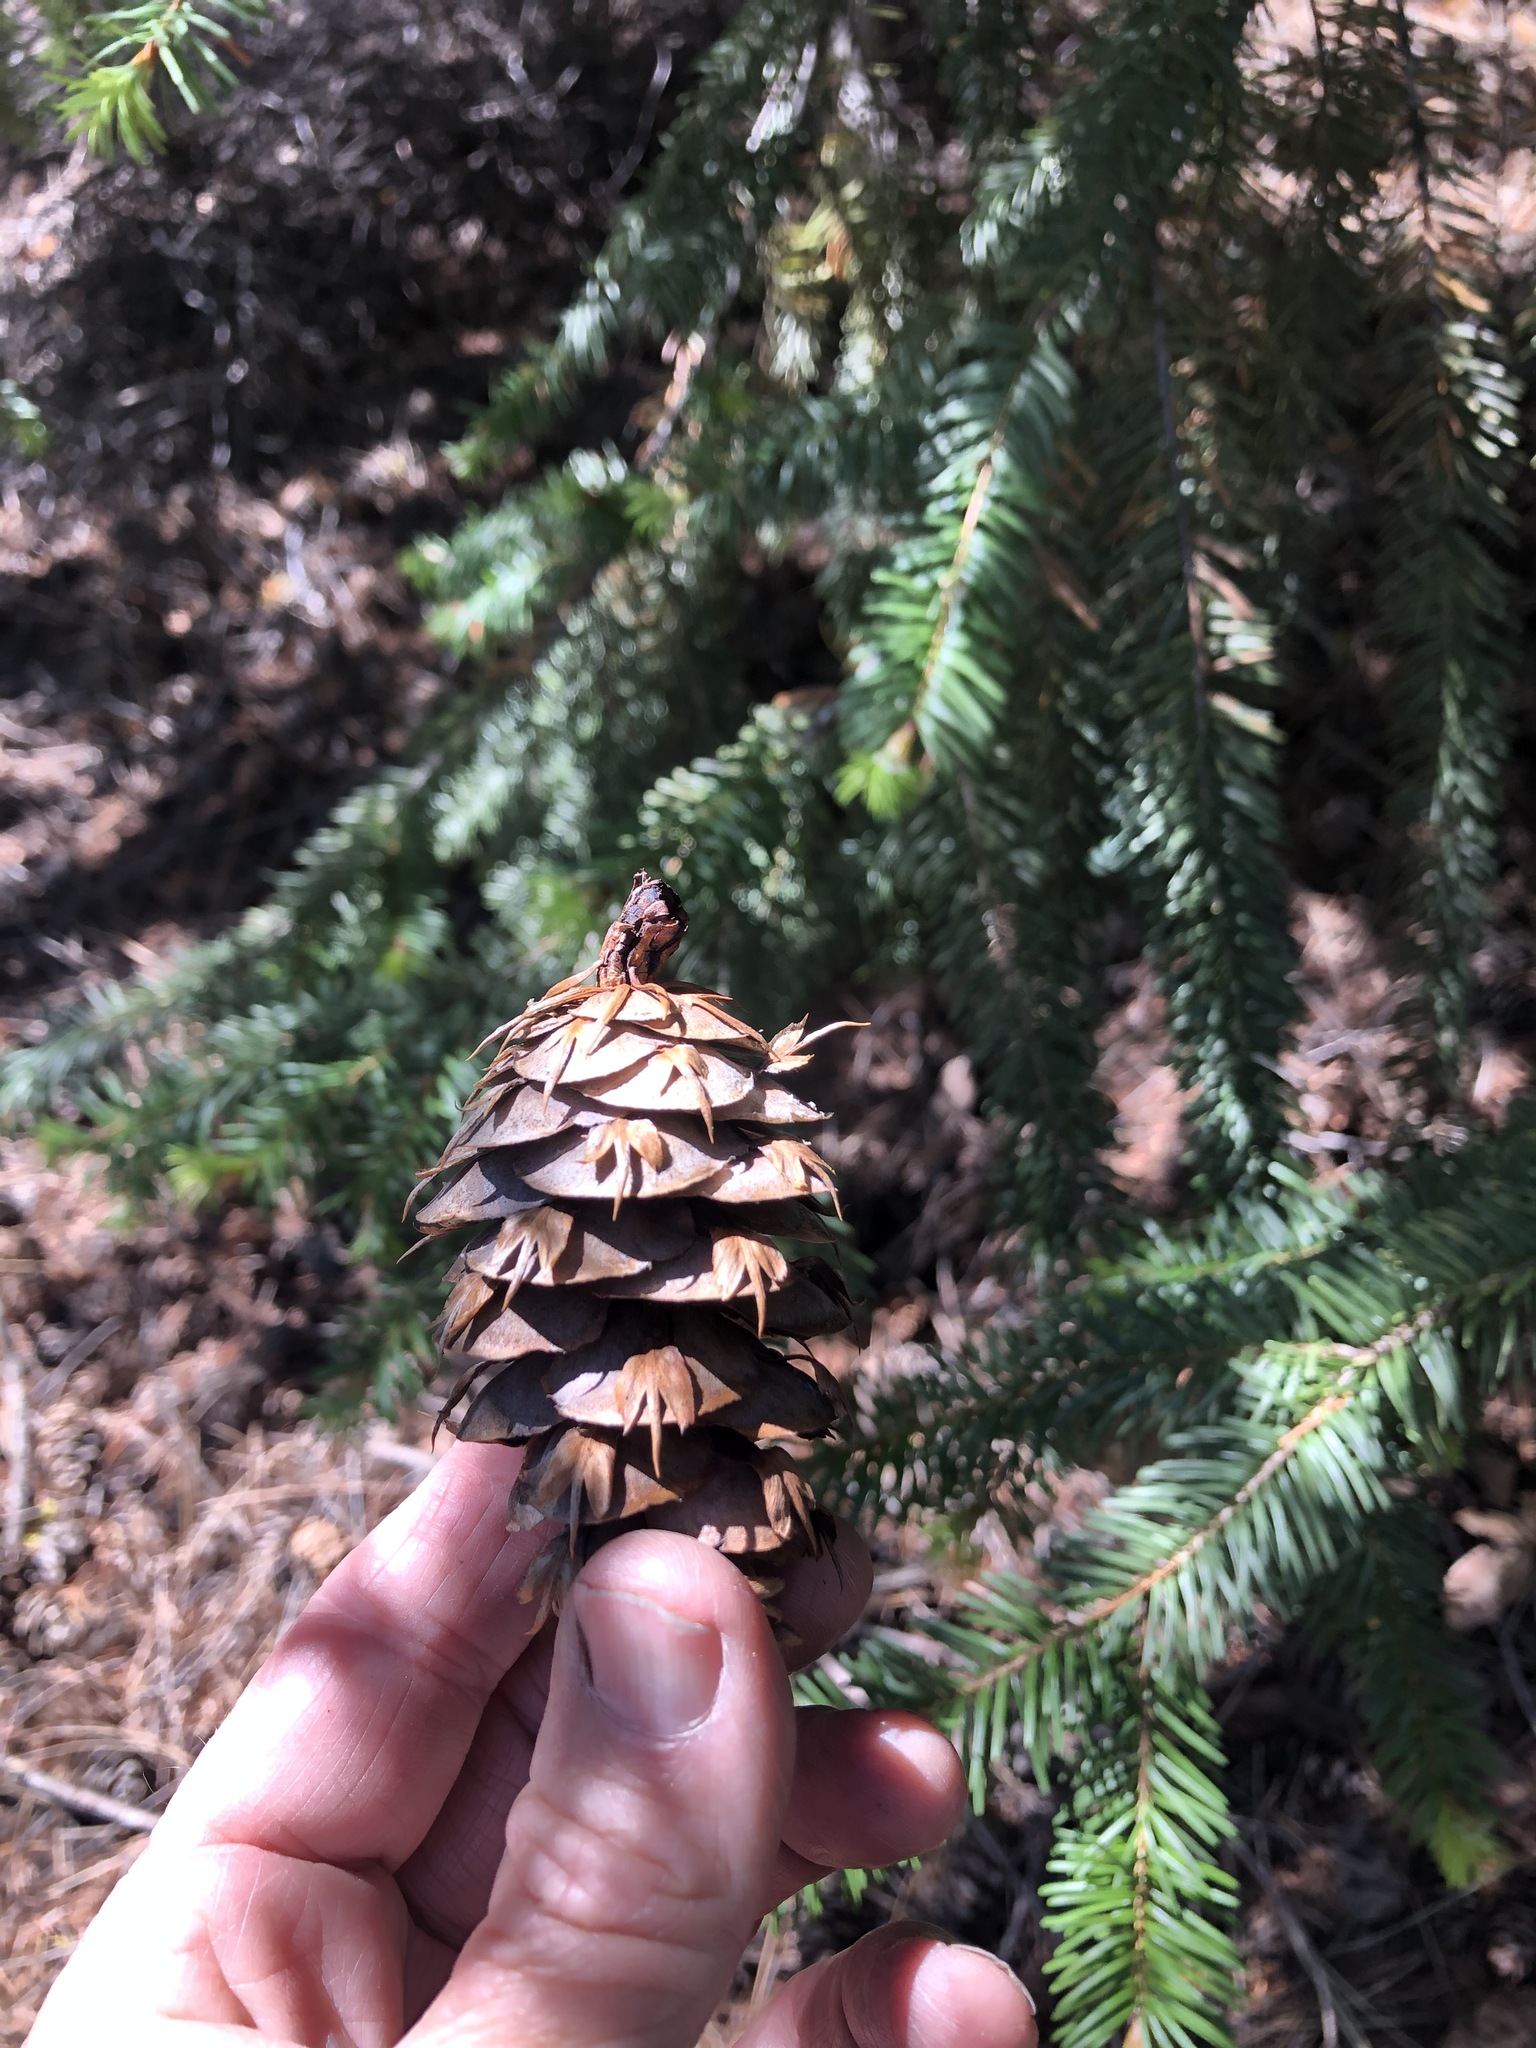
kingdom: Plantae
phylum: Tracheophyta
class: Pinopsida
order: Pinales
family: Pinaceae
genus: Pseudotsuga
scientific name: Pseudotsuga menziesii
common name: Douglas fir
